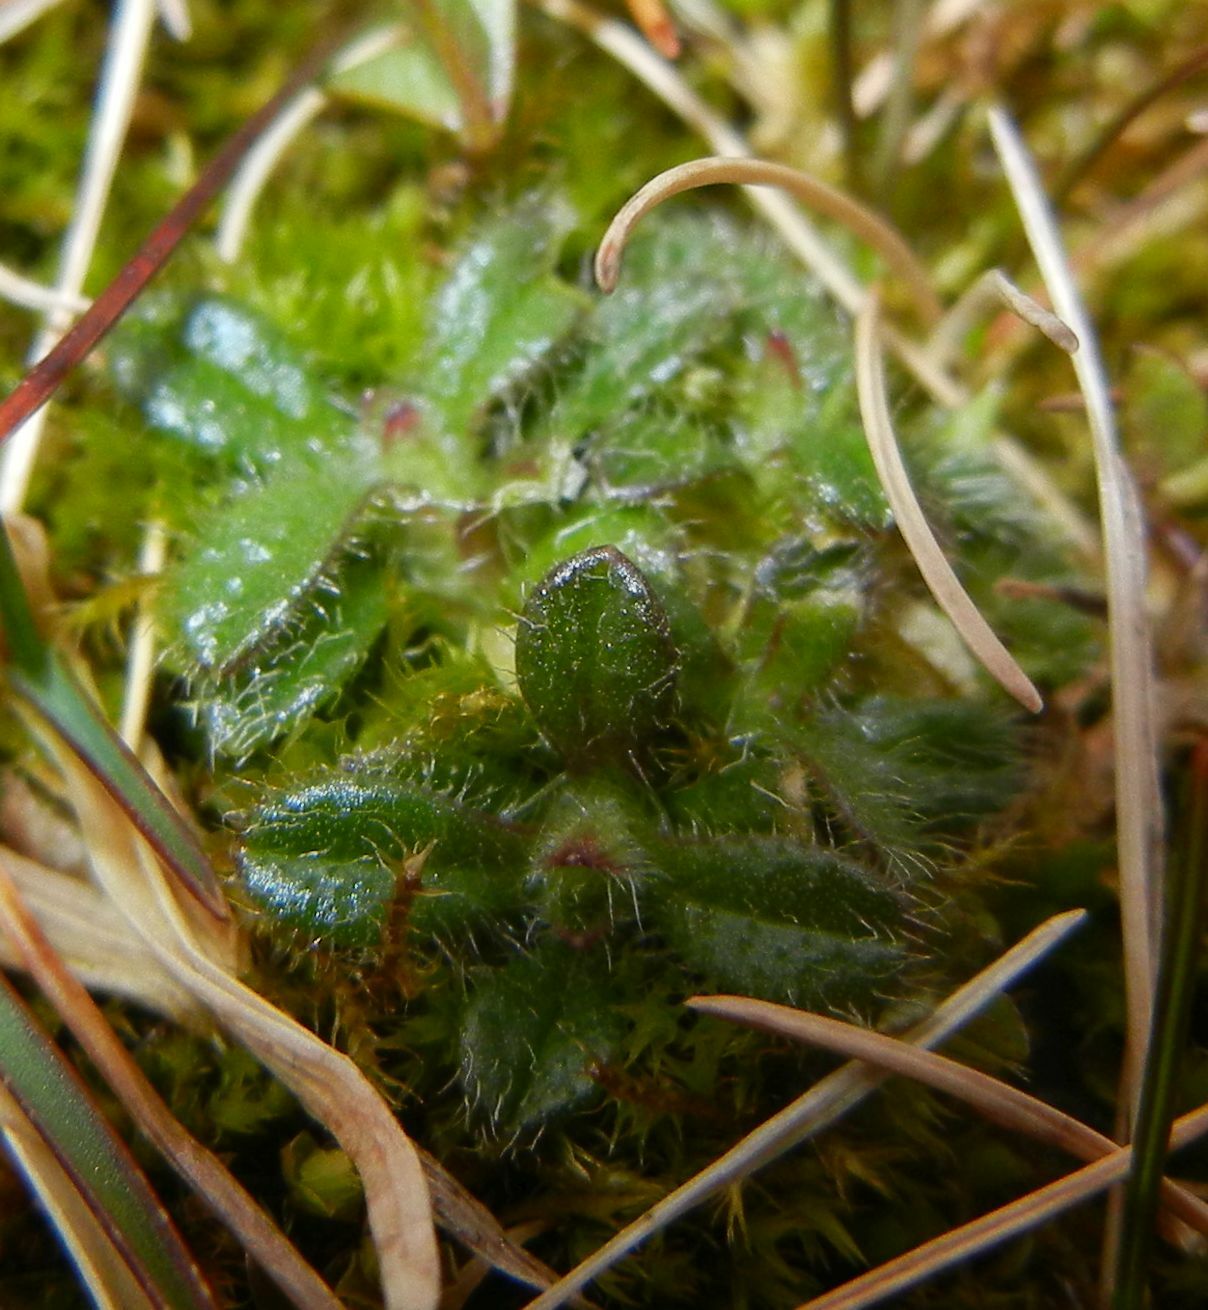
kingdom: Plantae
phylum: Tracheophyta
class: Magnoliopsida
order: Caryophyllales
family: Caryophyllaceae
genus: Cerastium
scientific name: Cerastium fontanum
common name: Common mouse-ear
